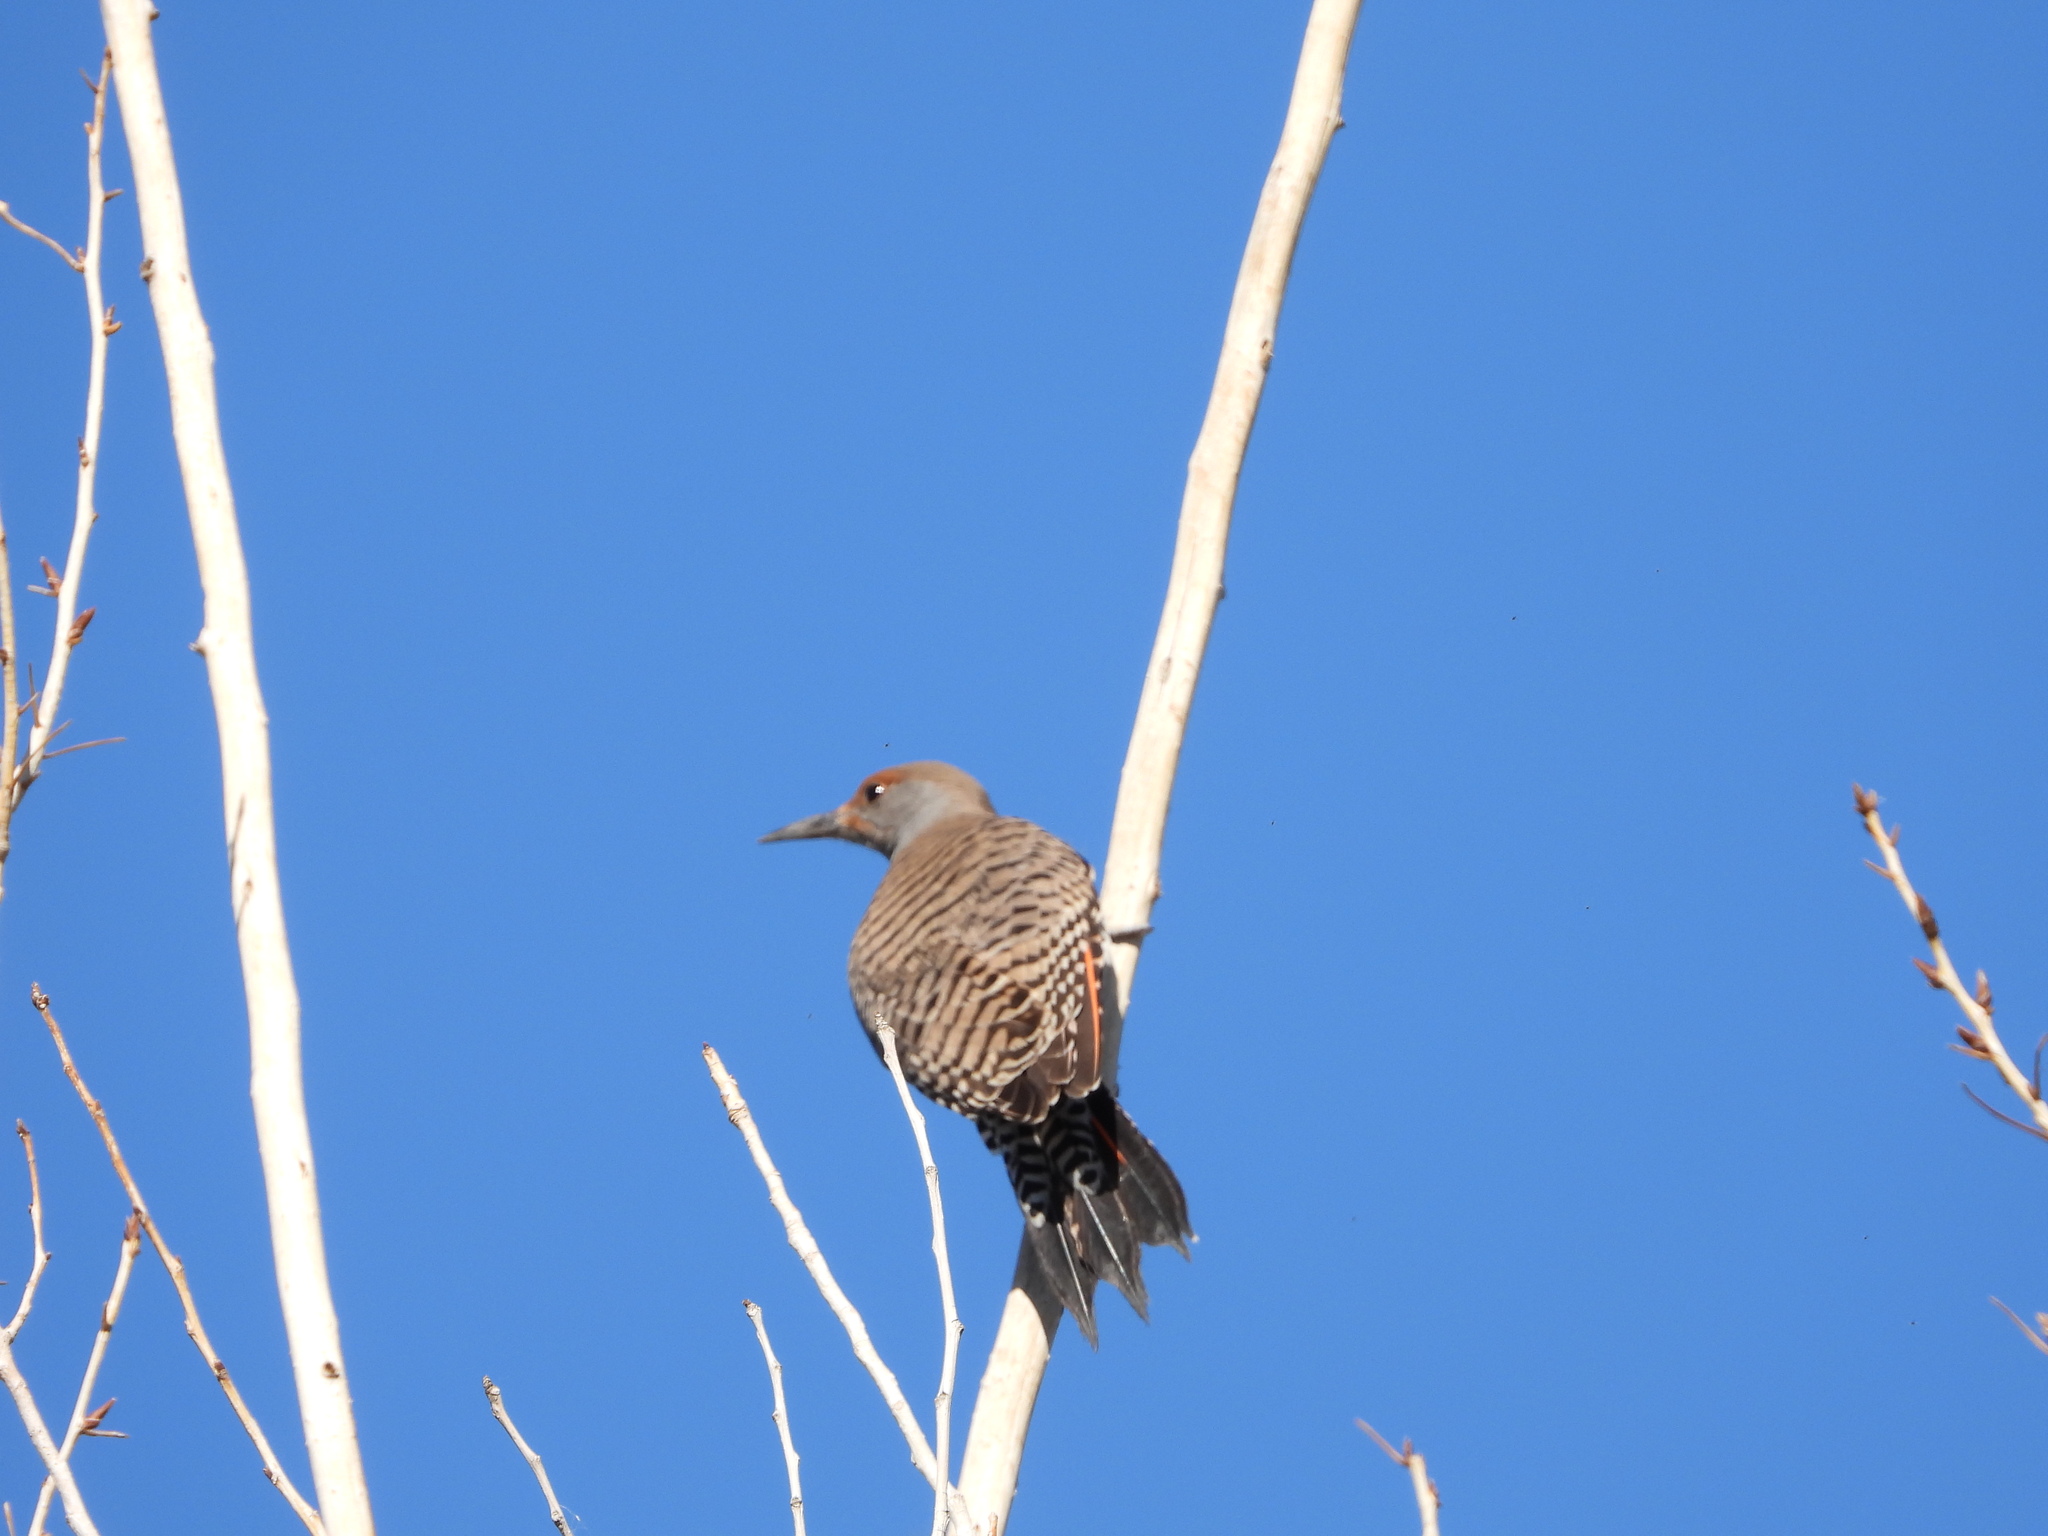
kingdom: Animalia
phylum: Chordata
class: Aves
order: Piciformes
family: Picidae
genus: Colaptes
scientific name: Colaptes auratus
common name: Northern flicker
